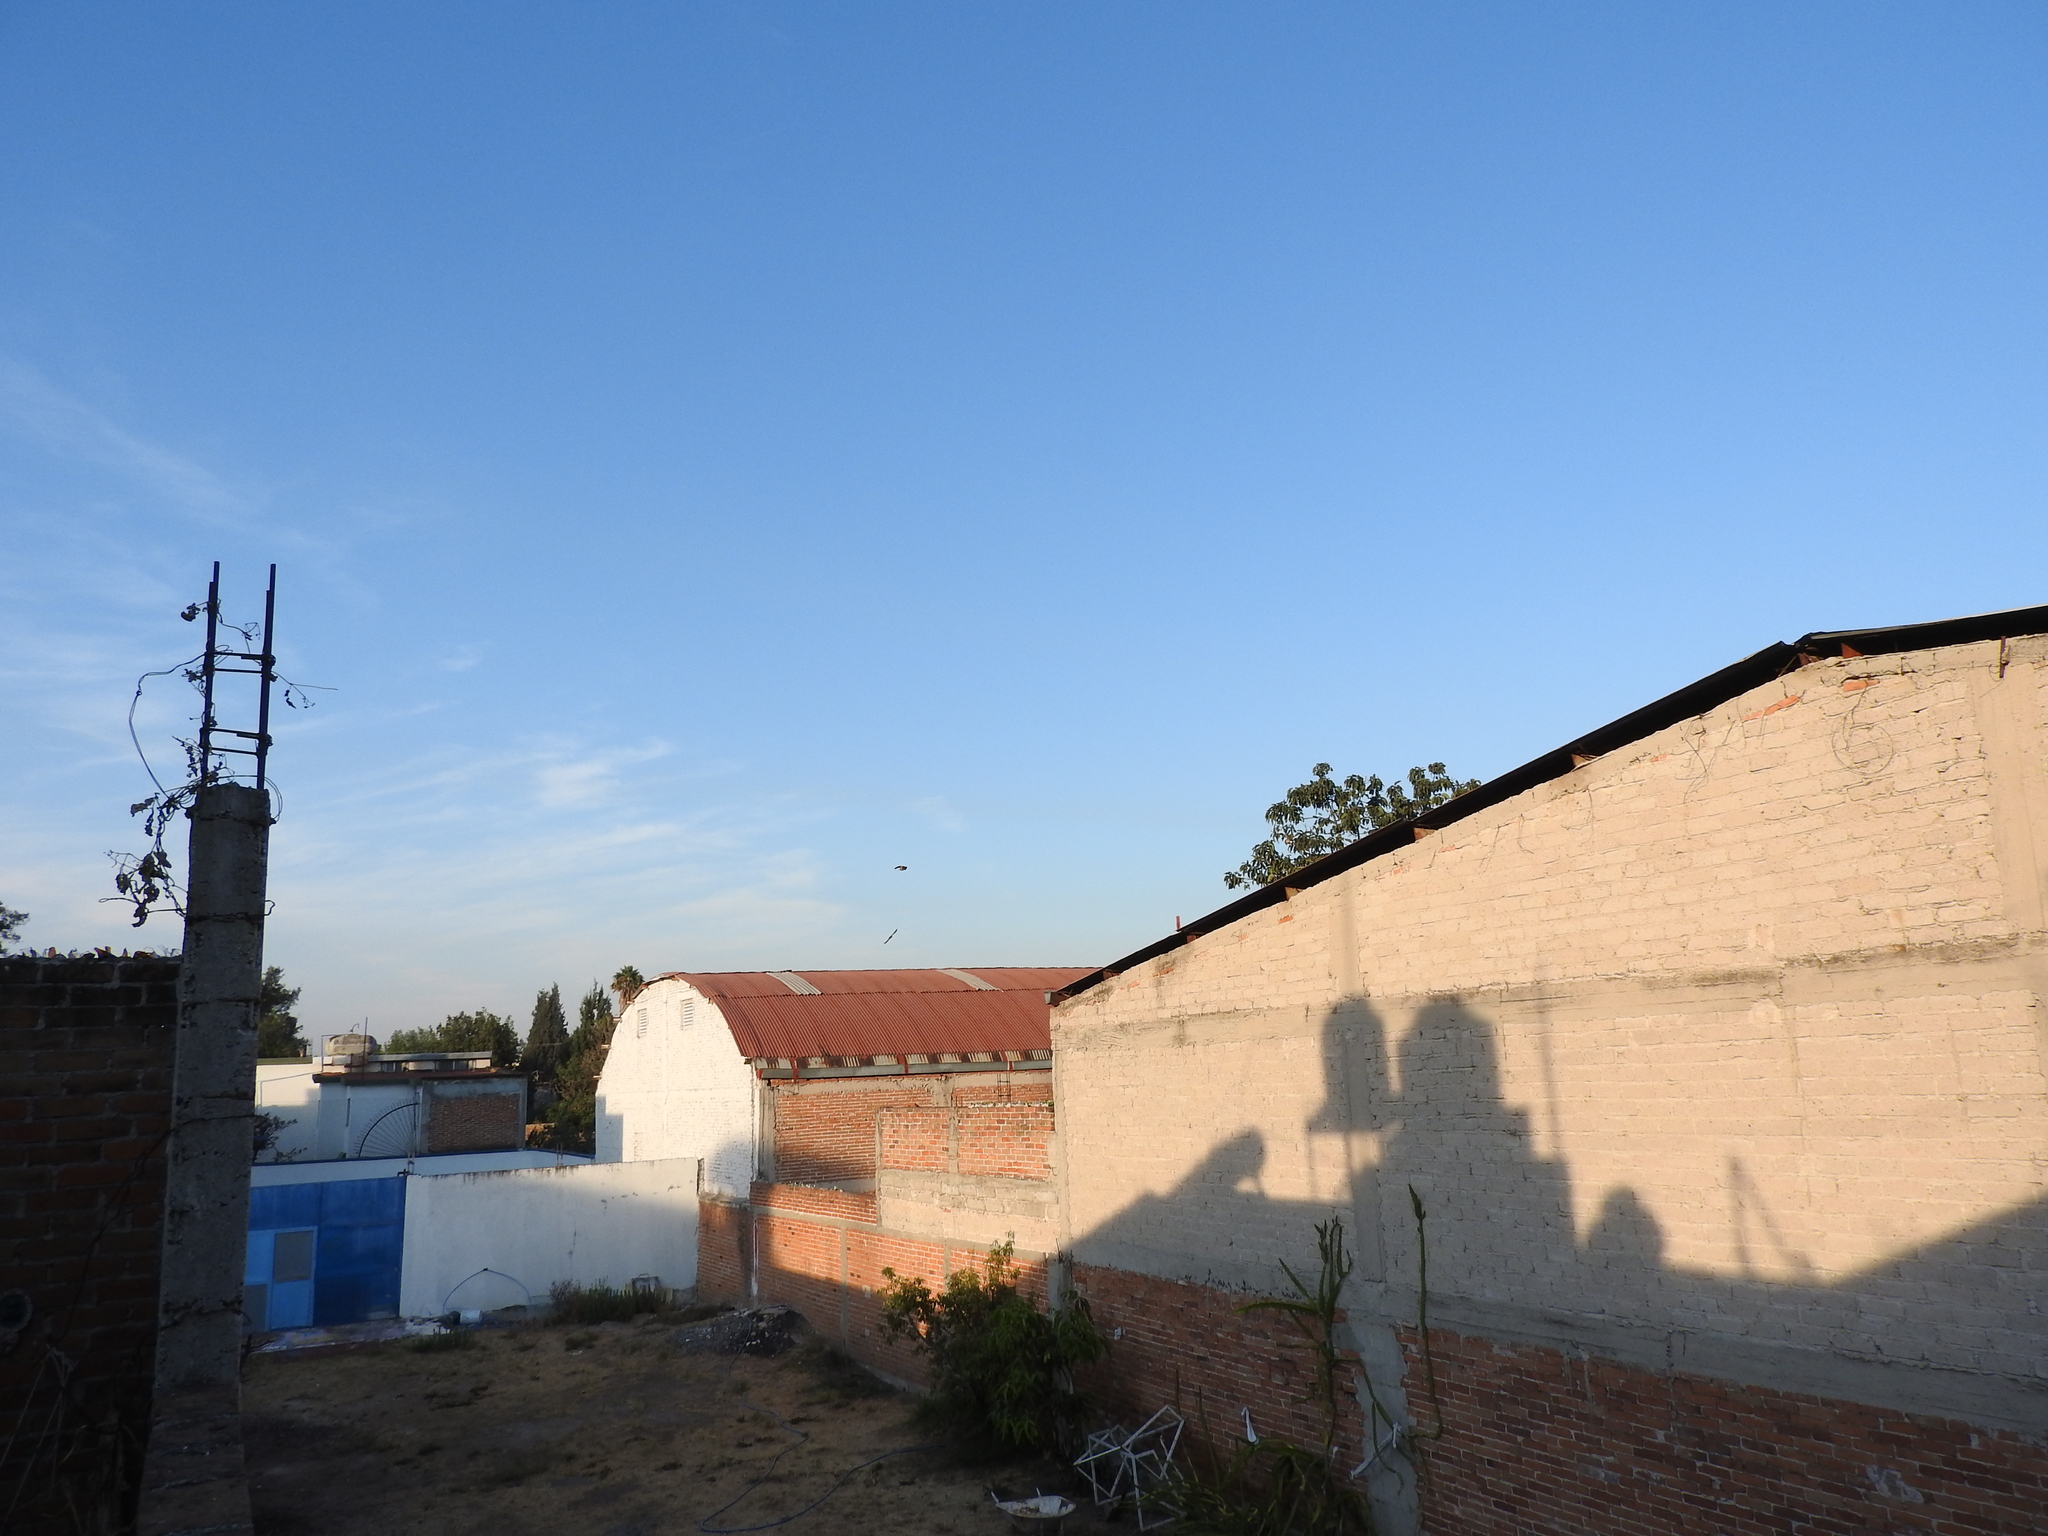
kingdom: Animalia
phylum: Chordata
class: Aves
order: Passeriformes
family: Hirundinidae
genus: Hirundo
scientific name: Hirundo rustica
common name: Barn swallow
